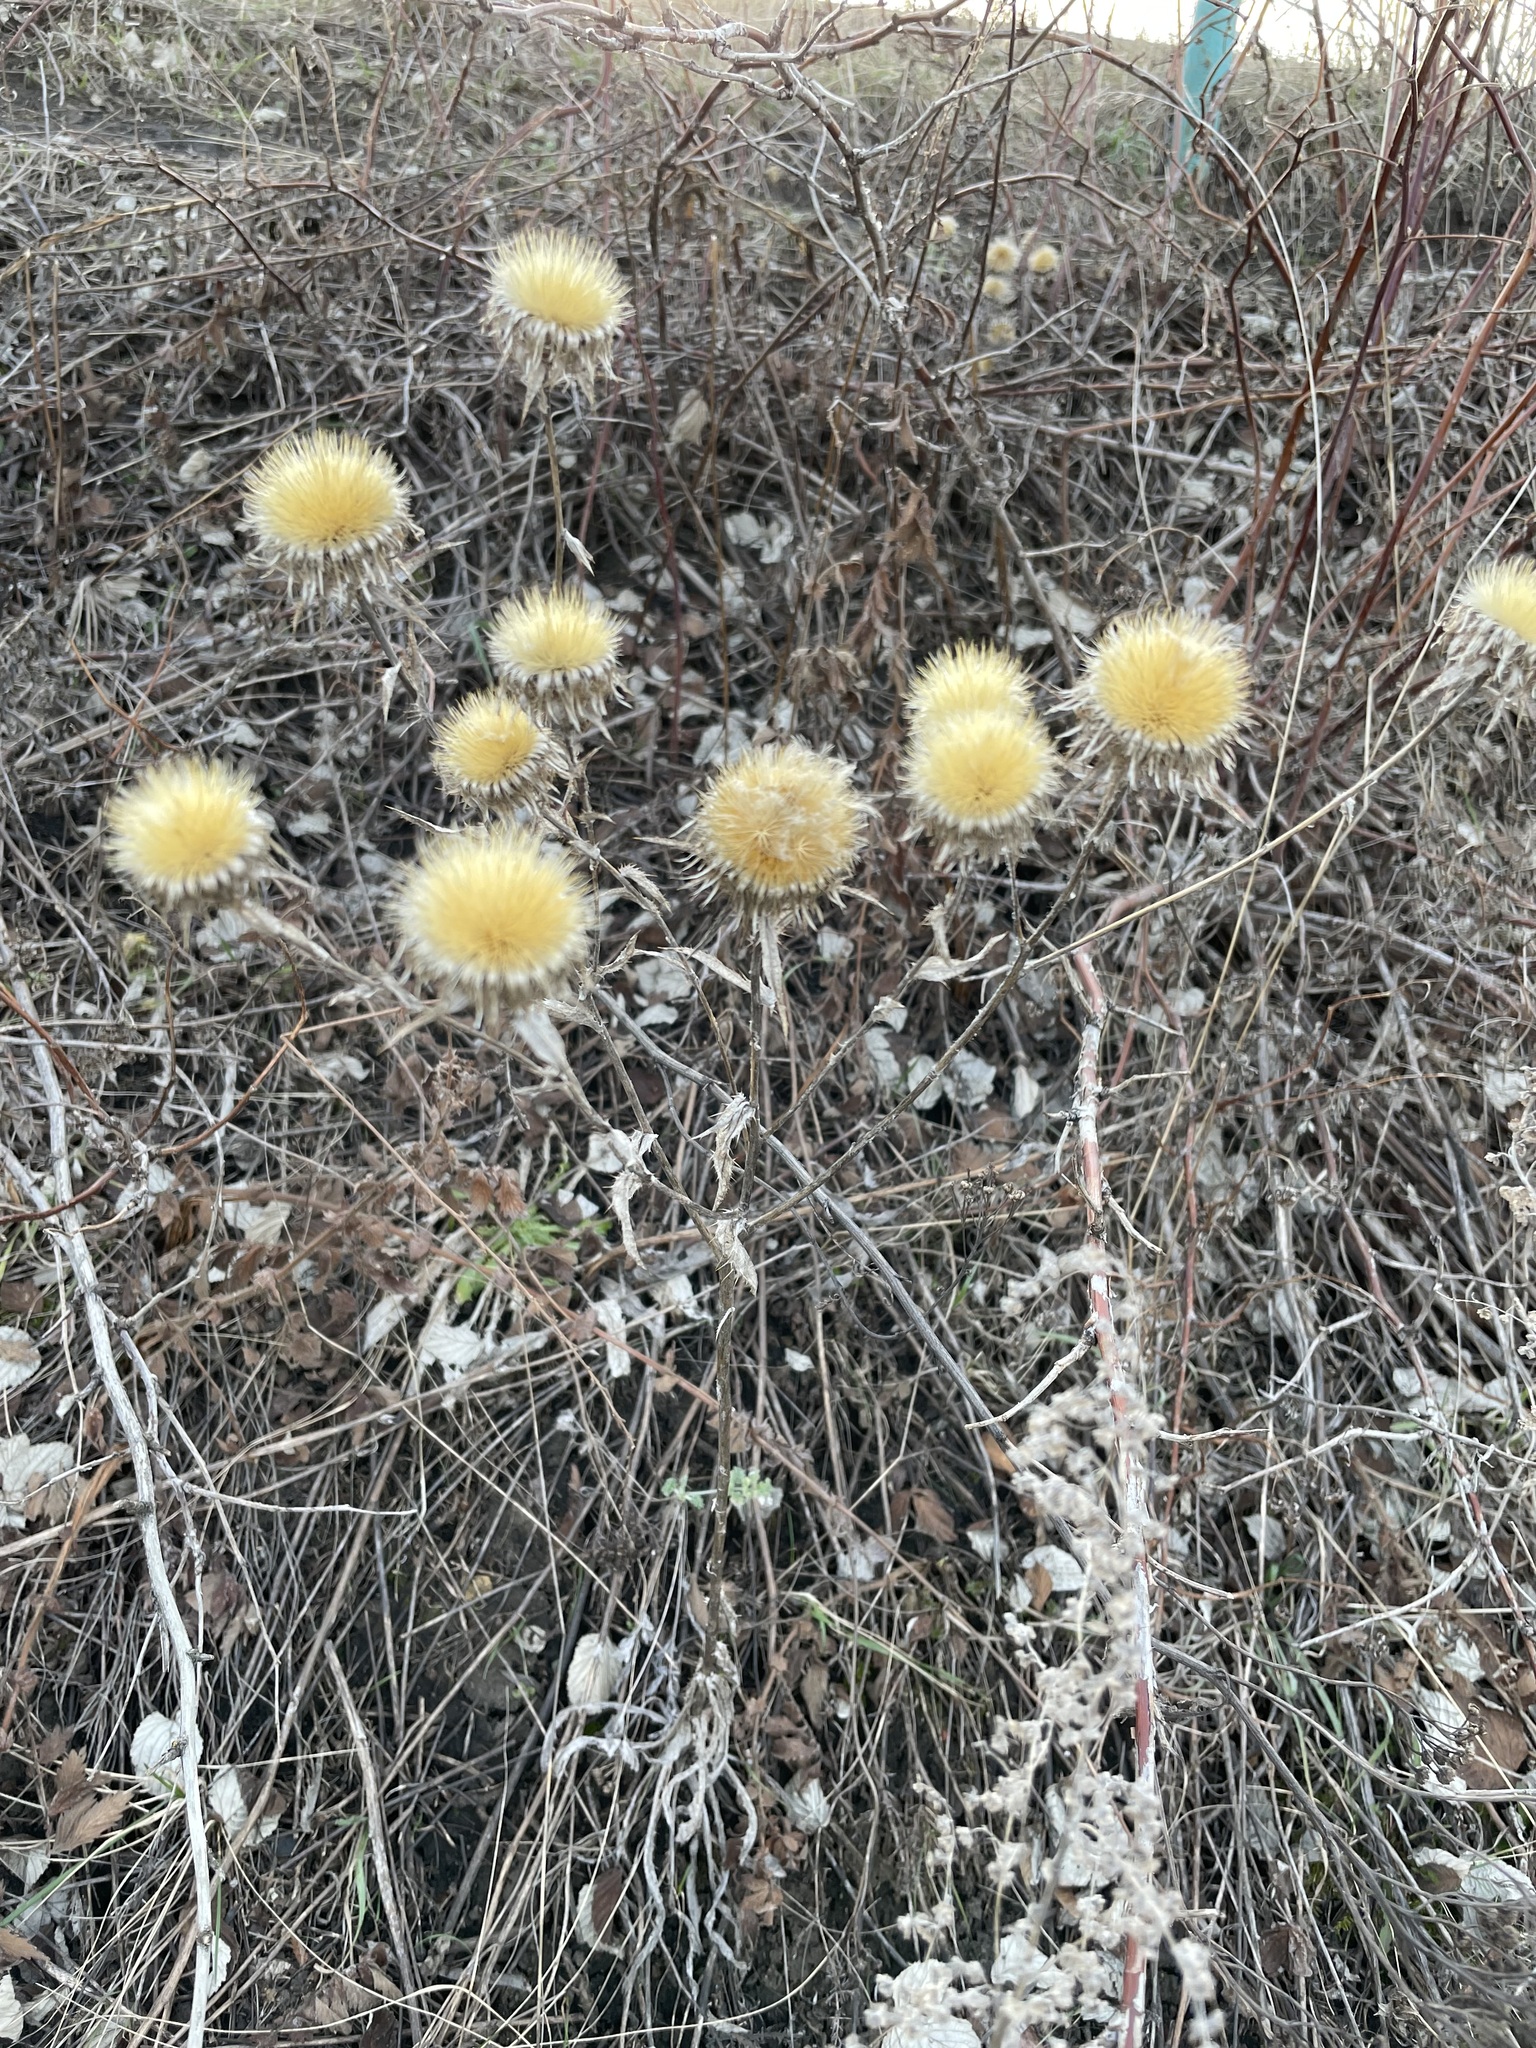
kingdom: Plantae
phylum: Tracheophyta
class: Magnoliopsida
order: Asterales
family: Asteraceae
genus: Carlina
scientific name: Carlina biebersteinii
